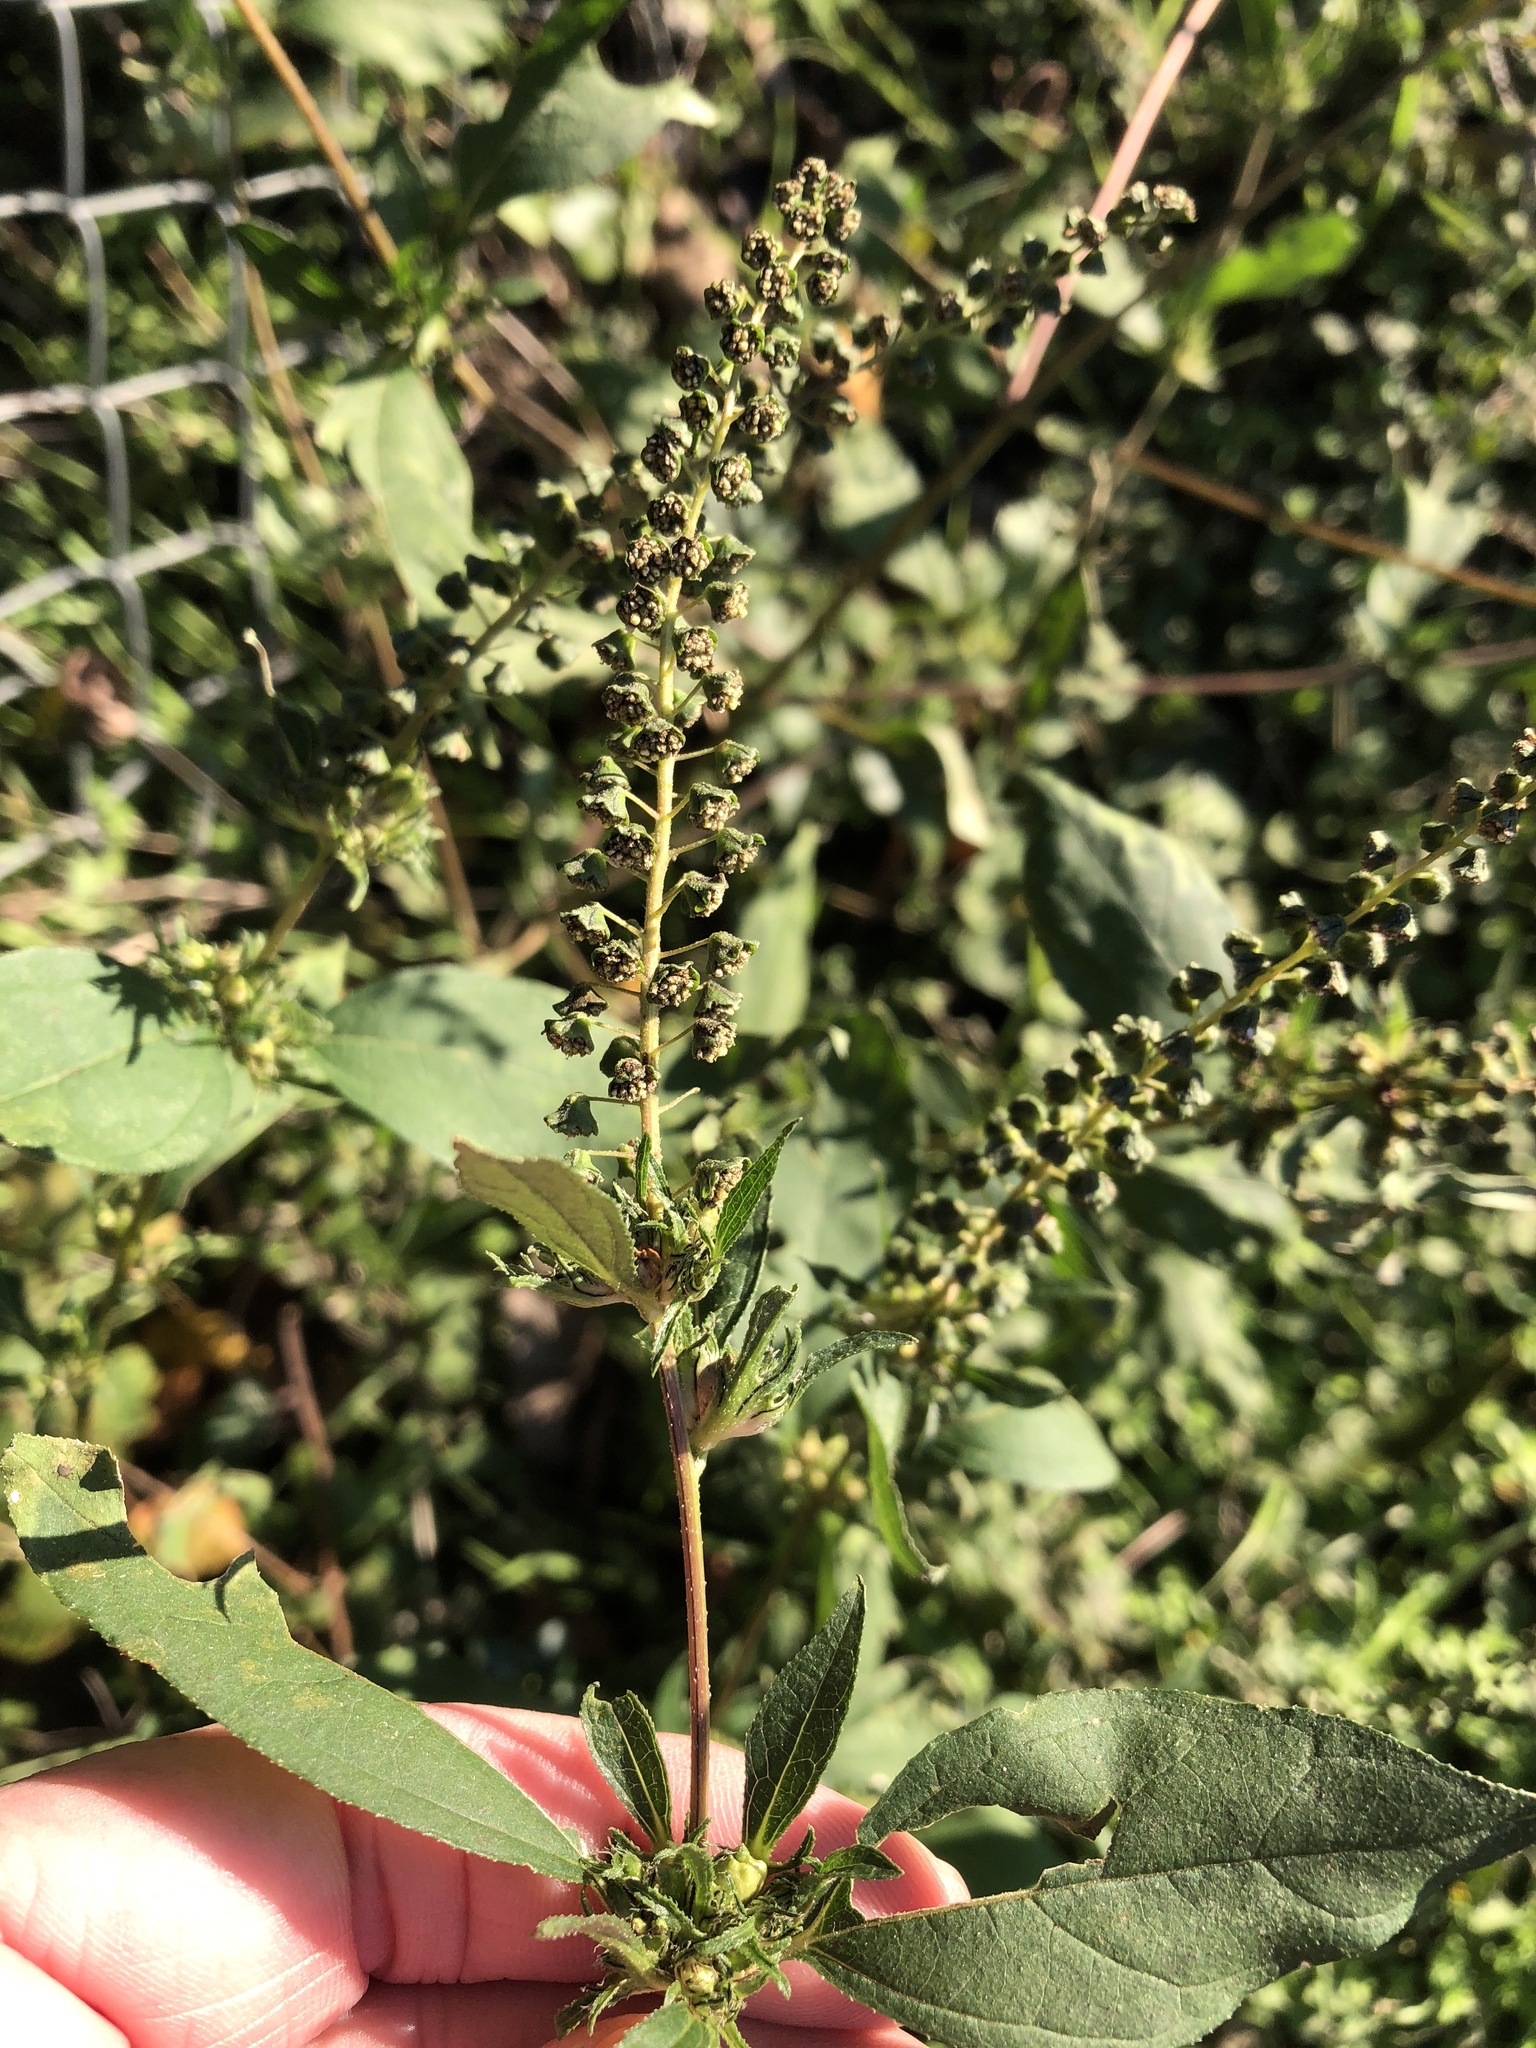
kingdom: Plantae
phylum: Tracheophyta
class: Magnoliopsida
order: Asterales
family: Asteraceae
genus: Ambrosia
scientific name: Ambrosia trifida
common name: Giant ragweed
